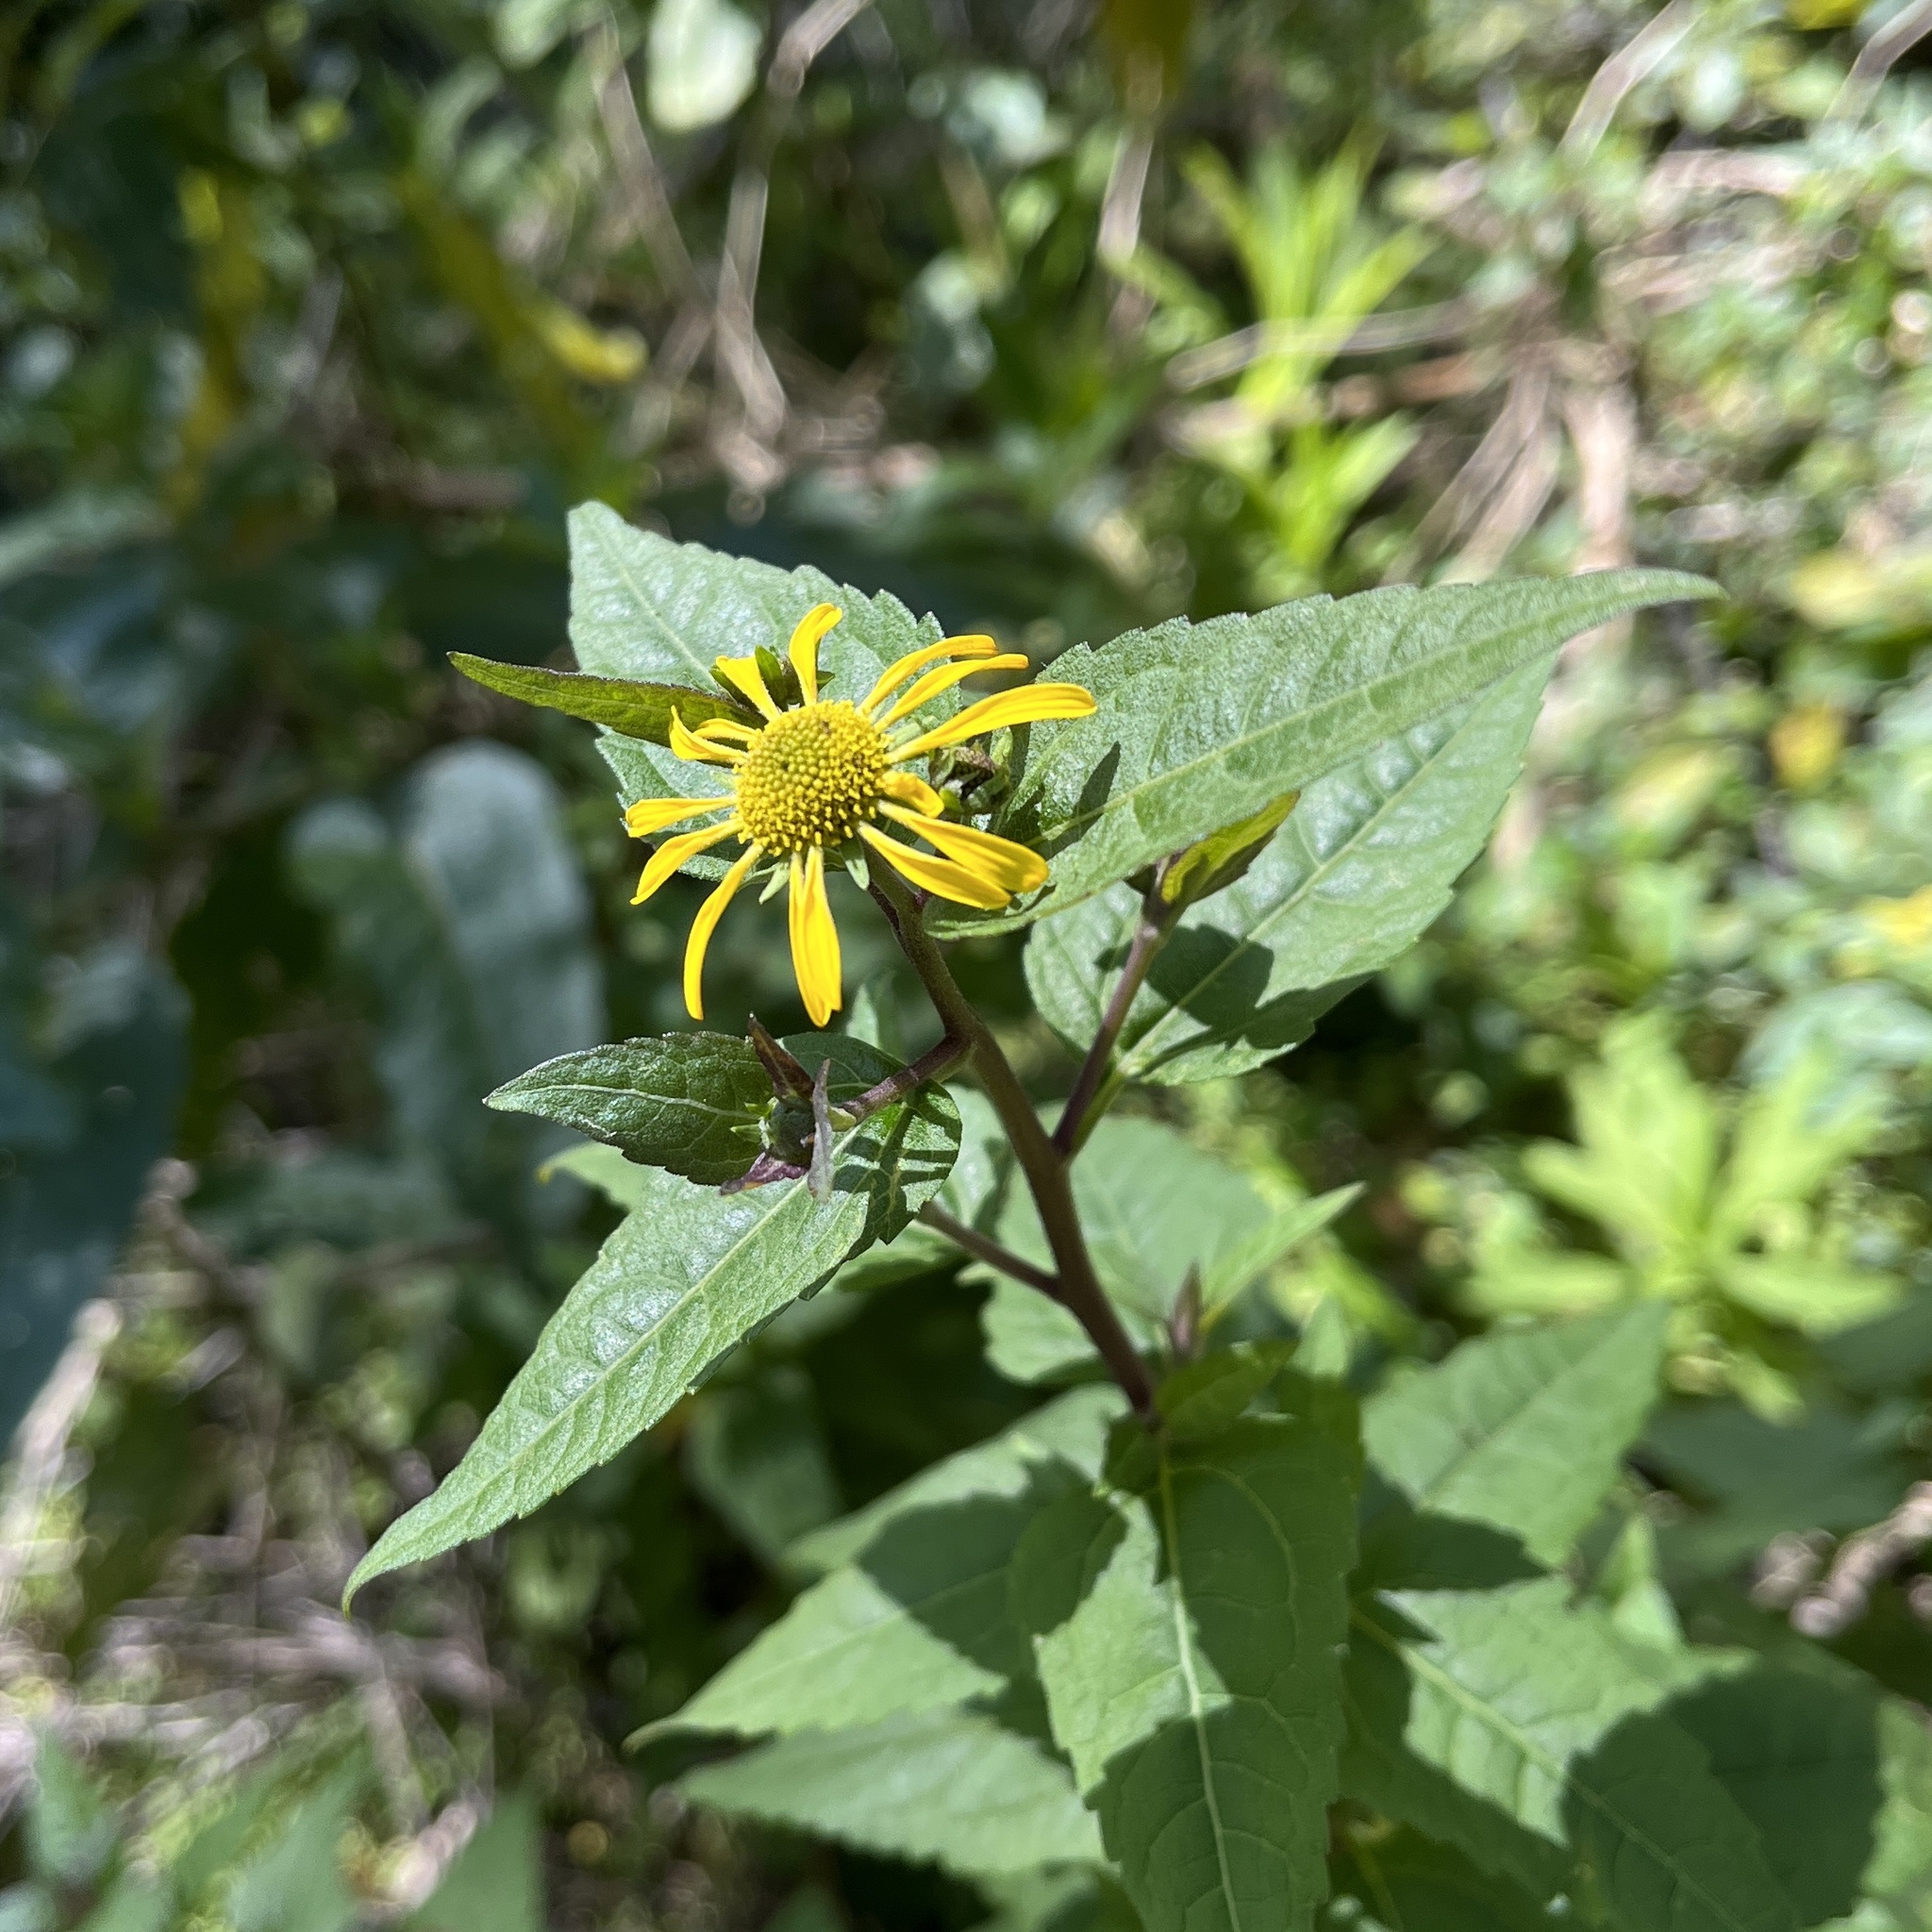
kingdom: Plantae
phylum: Tracheophyta
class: Magnoliopsida
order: Asterales
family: Asteraceae
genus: Leptocarpha
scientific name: Leptocarpha rivularis
